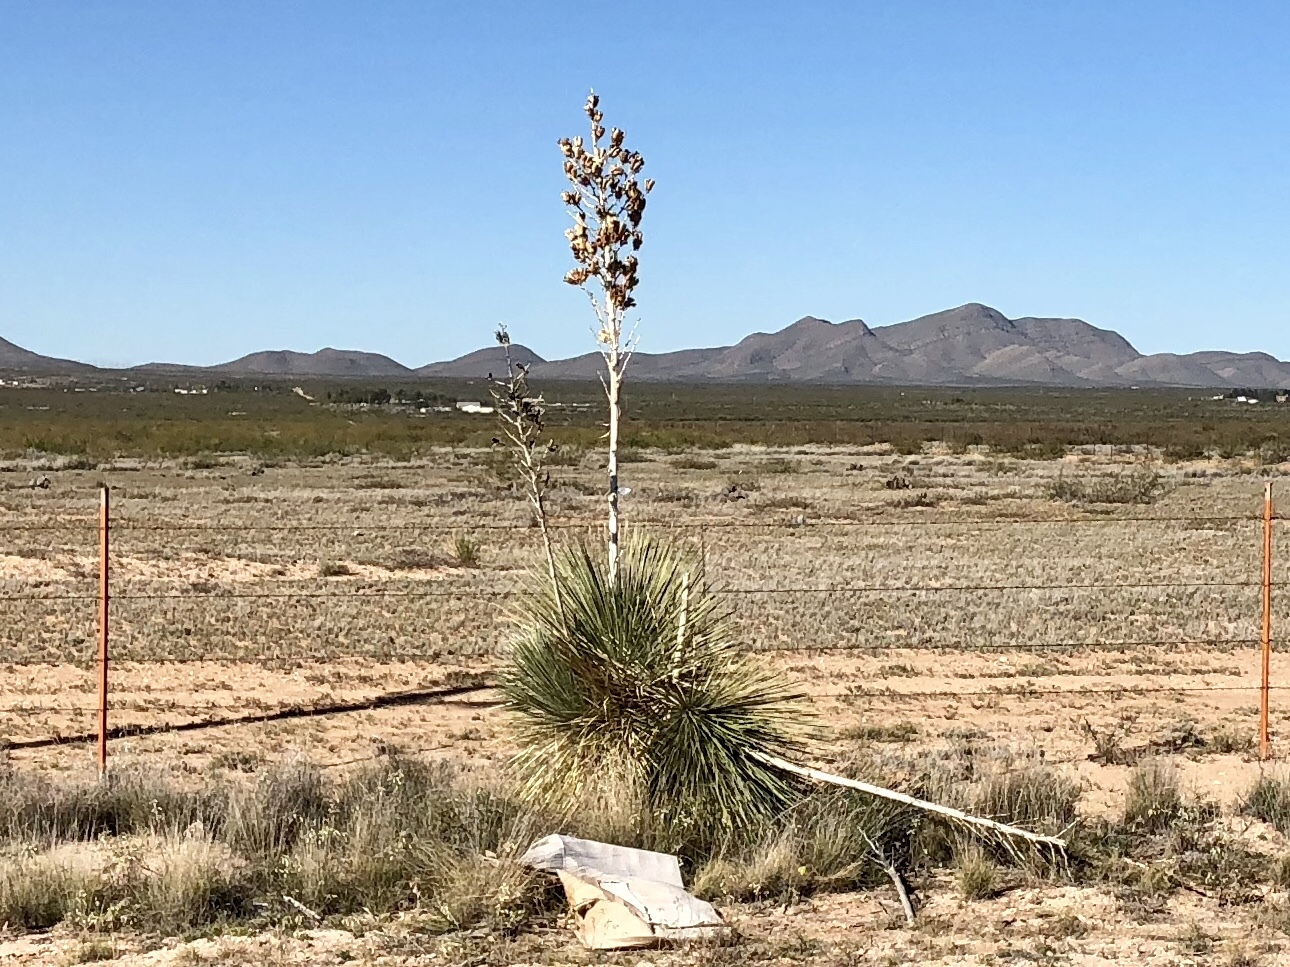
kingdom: Plantae
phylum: Tracheophyta
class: Liliopsida
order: Asparagales
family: Asparagaceae
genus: Yucca
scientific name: Yucca elata
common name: Palmella
